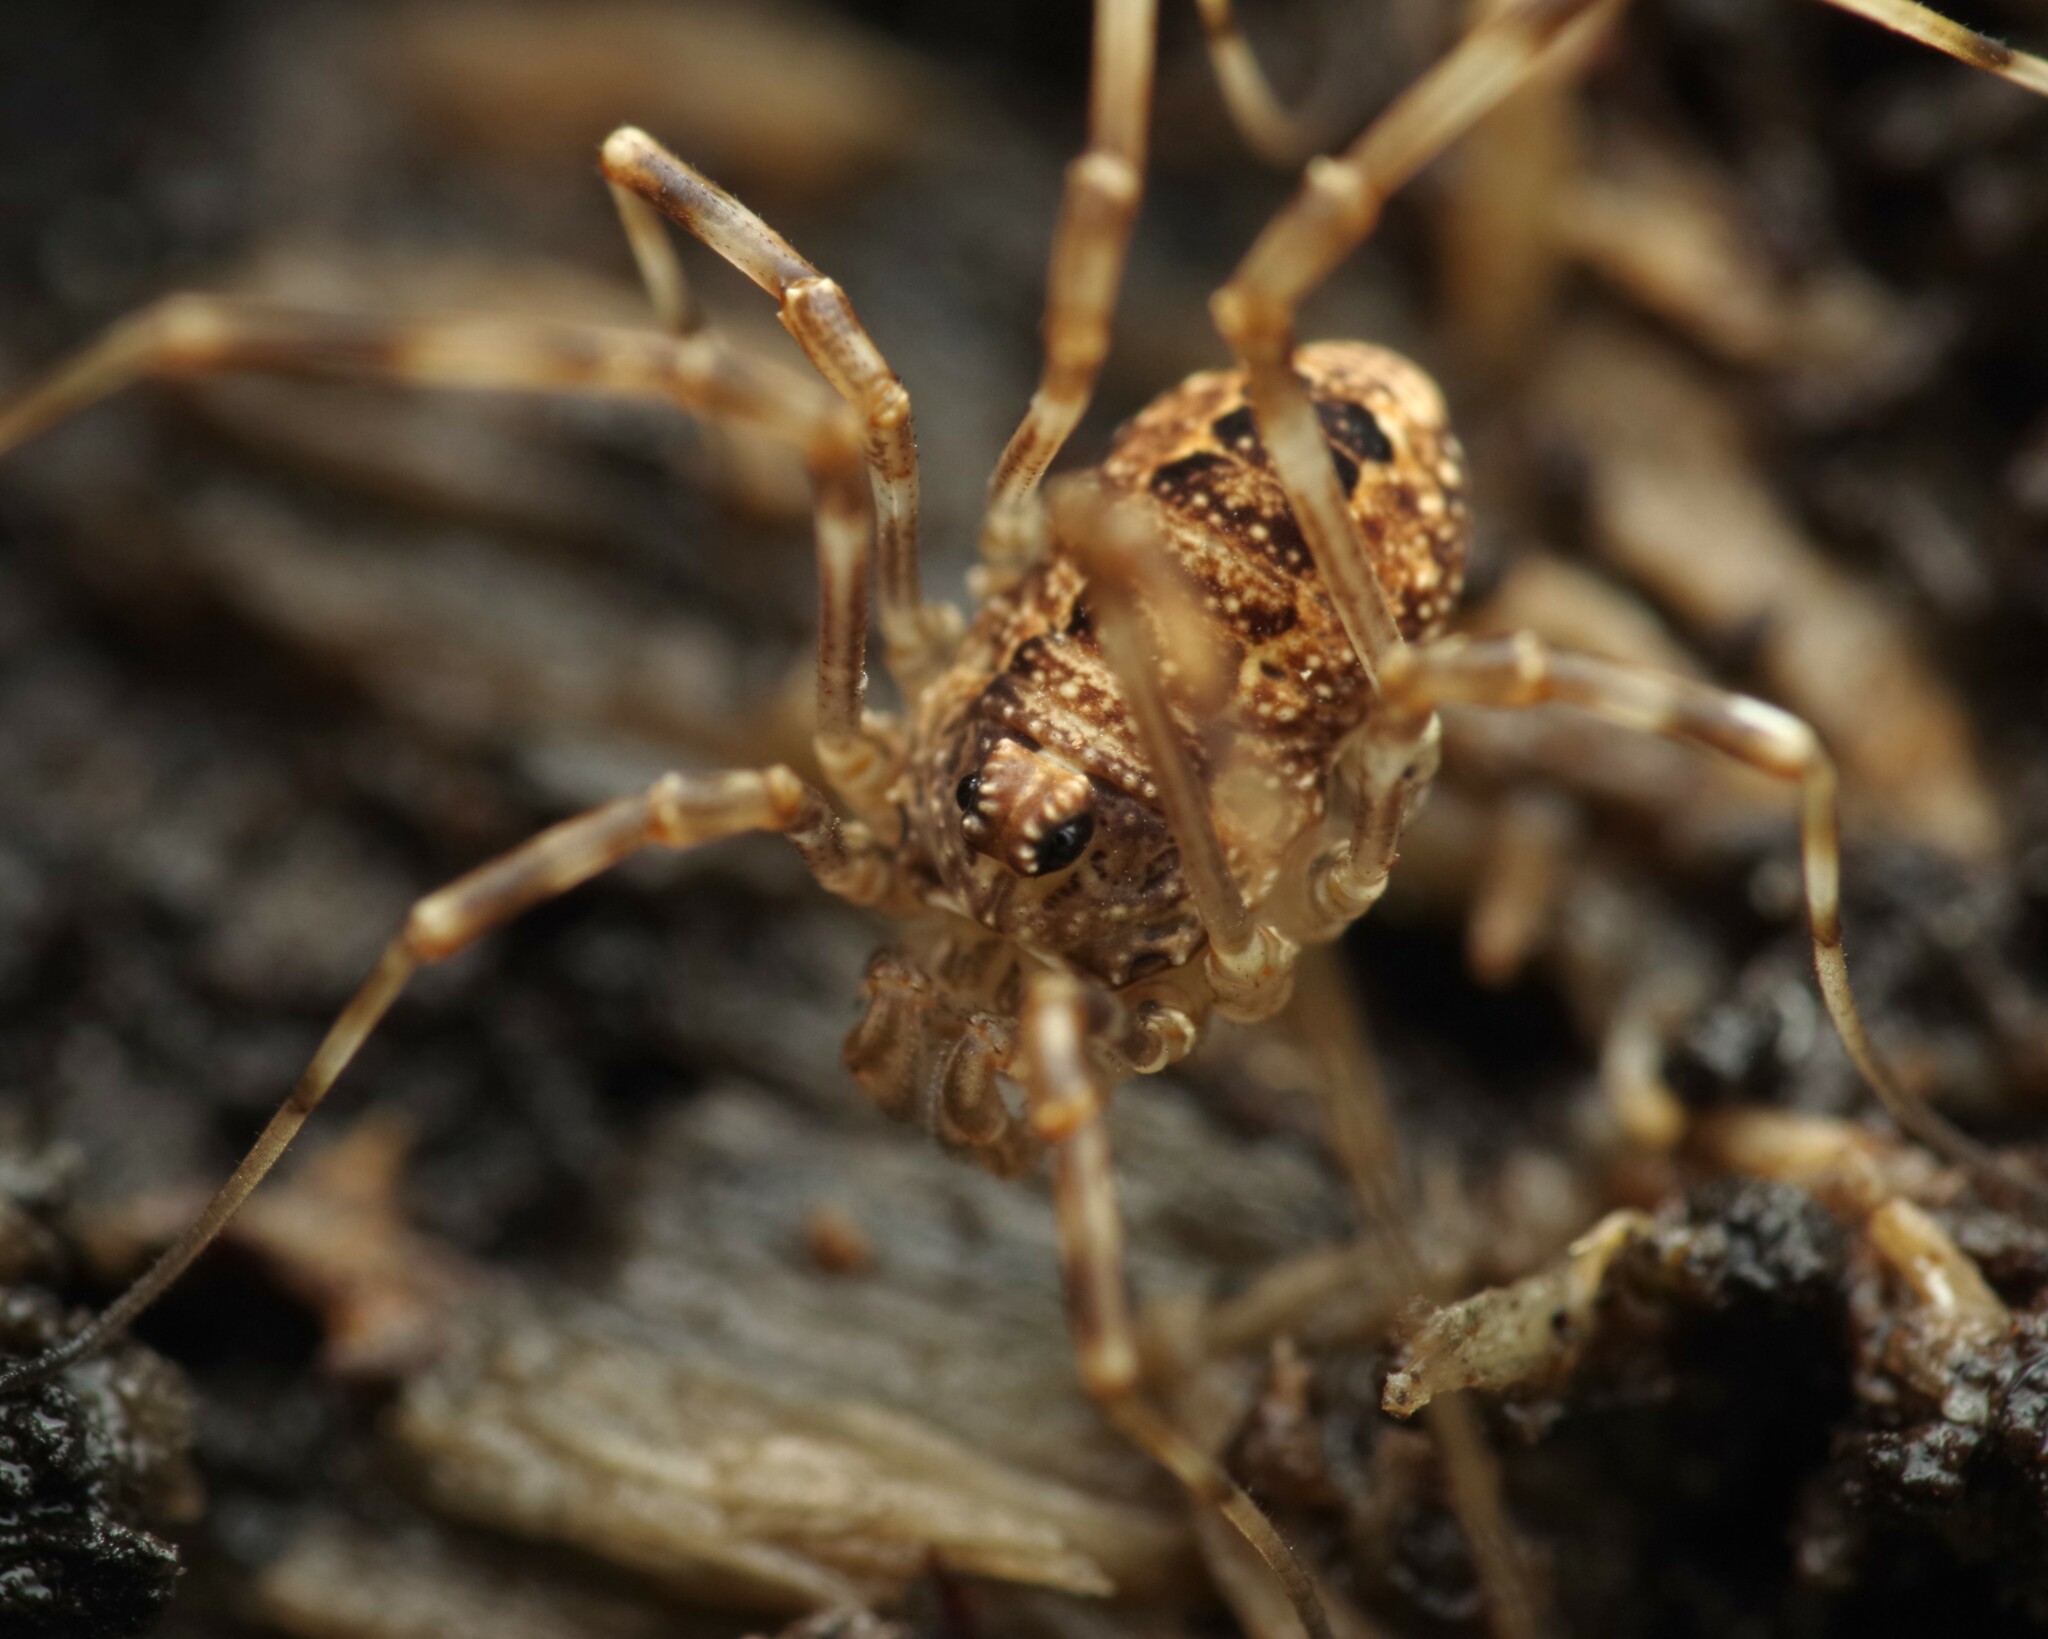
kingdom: Animalia
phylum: Arthropoda
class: Arachnida
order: Opiliones
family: Phalangiidae
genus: Rilaena
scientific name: Rilaena triangularis
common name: Spring harvestman
